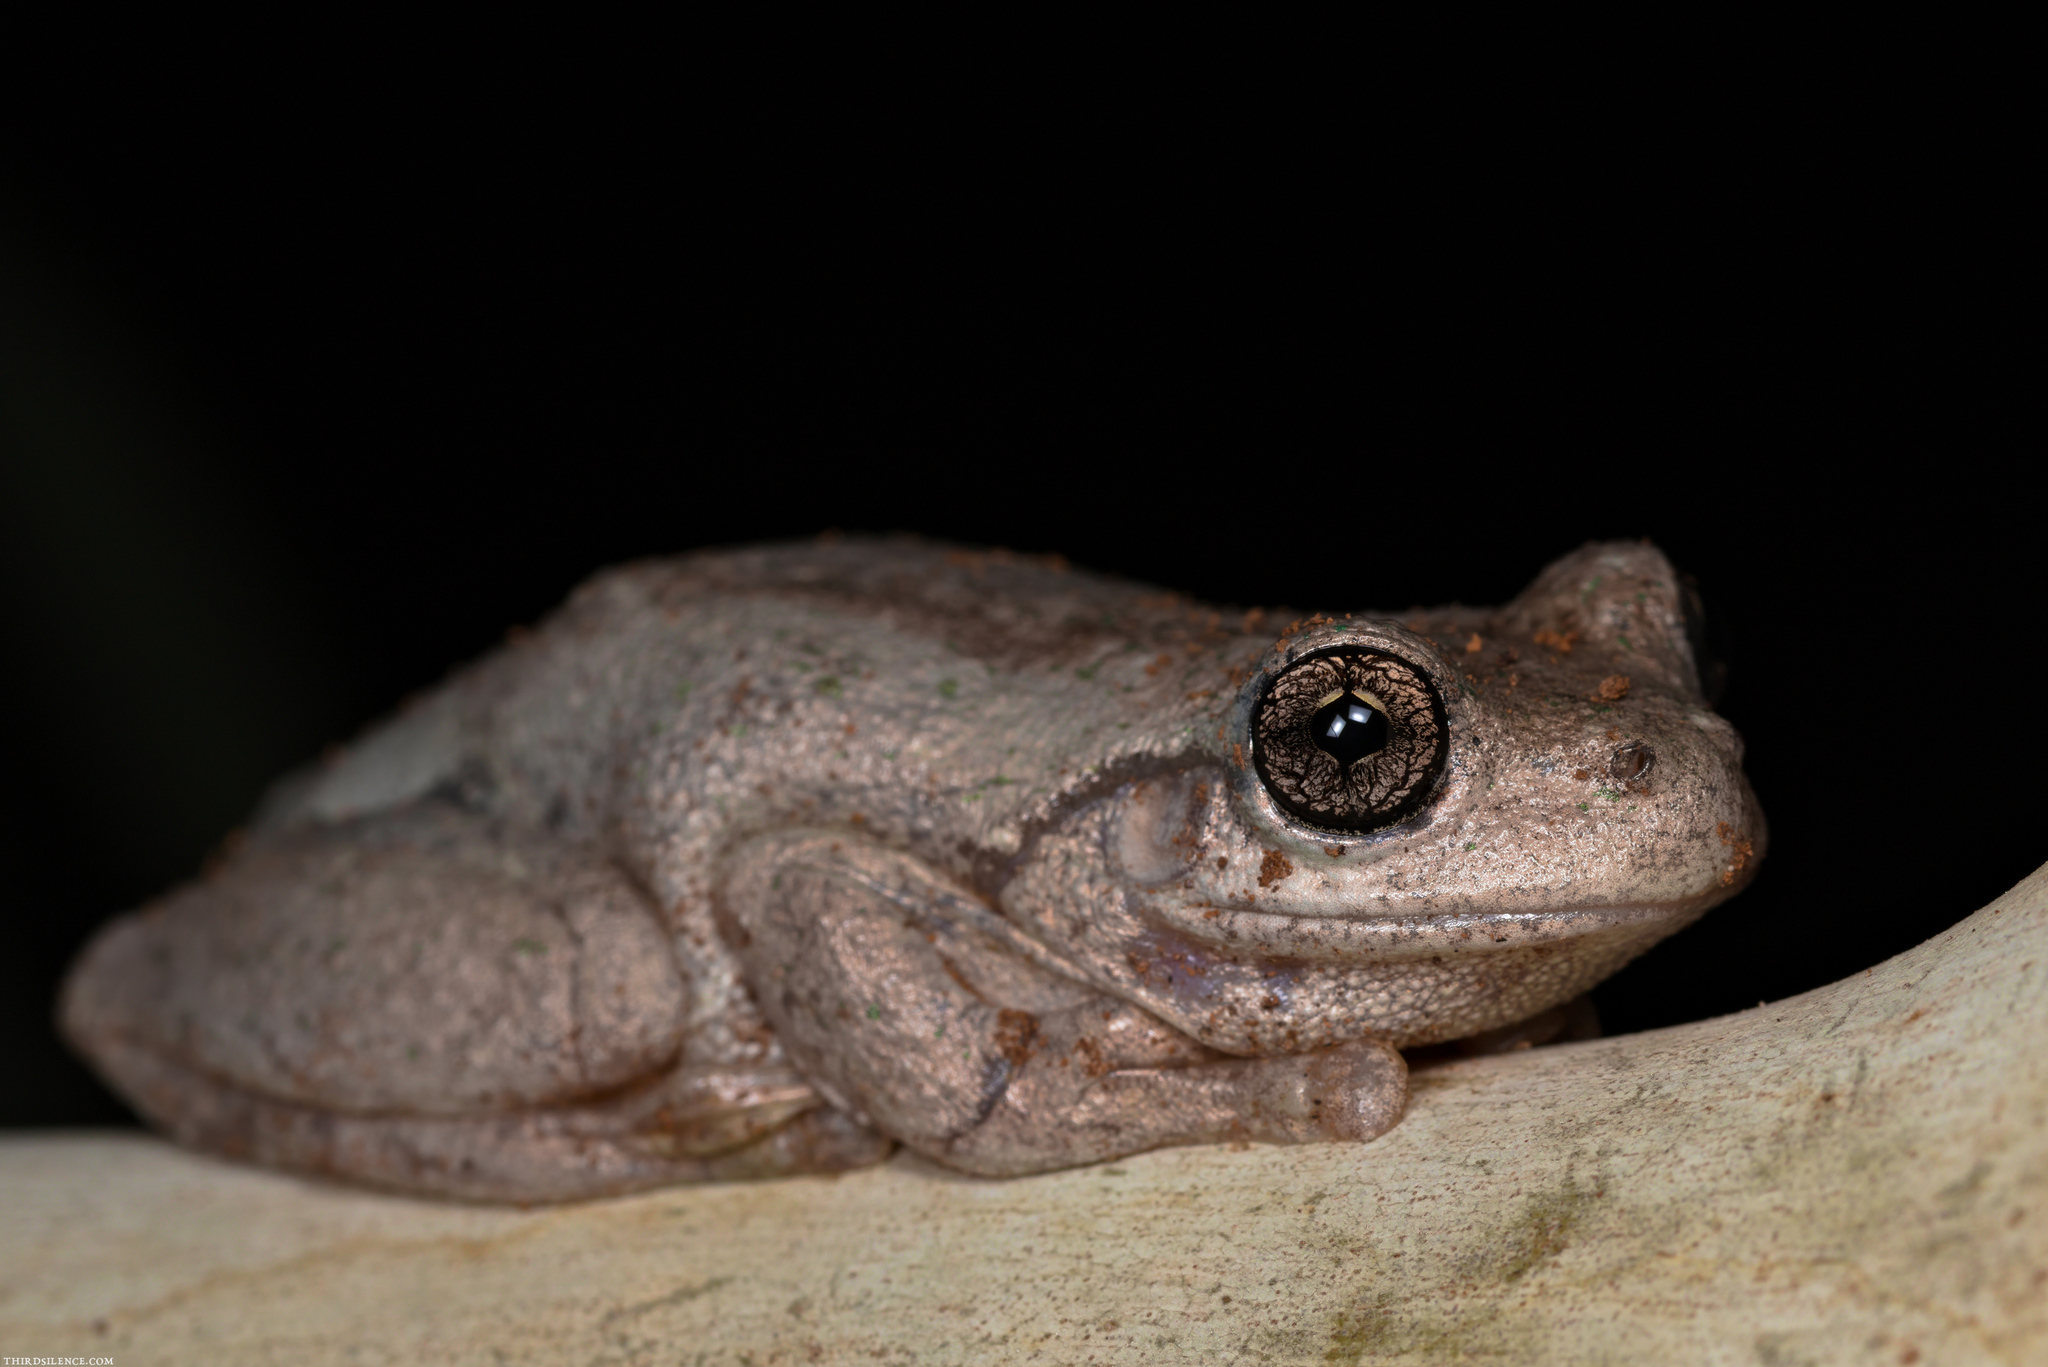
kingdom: Animalia
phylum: Chordata
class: Amphibia
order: Anura
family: Pelodryadidae
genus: Litoria
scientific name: Litoria peronii
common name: Emerald spotted treefrog
